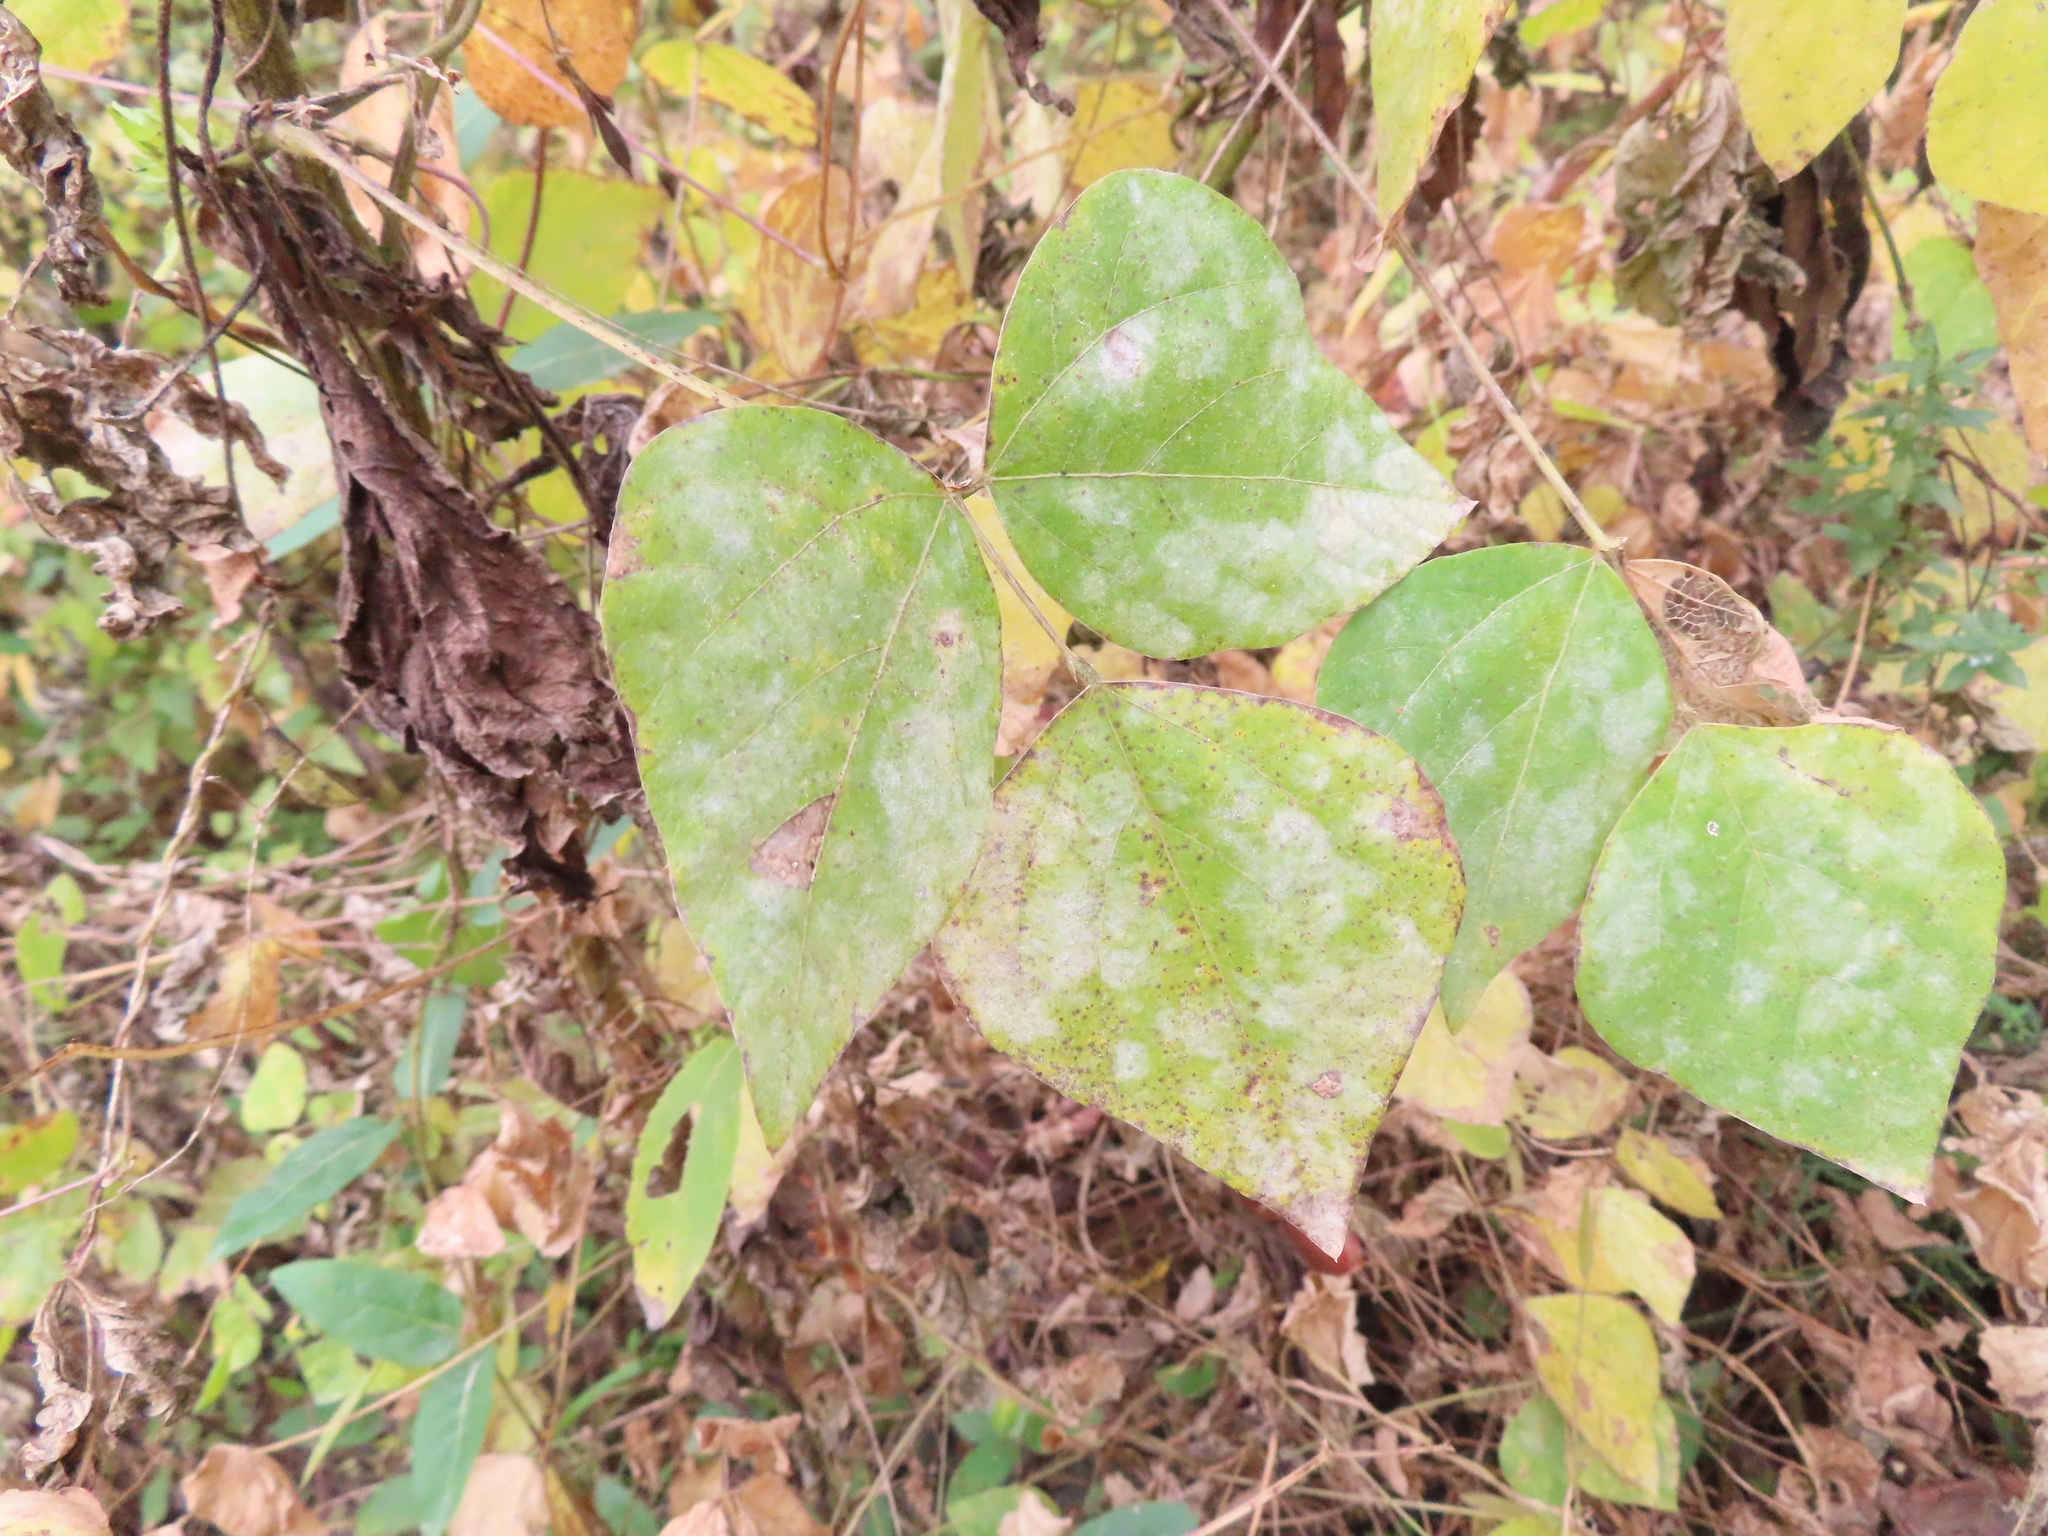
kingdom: Fungi
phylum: Ascomycota
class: Leotiomycetes
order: Helotiales
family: Erysiphaceae
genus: Erysiphe
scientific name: Erysiphe diffusa
